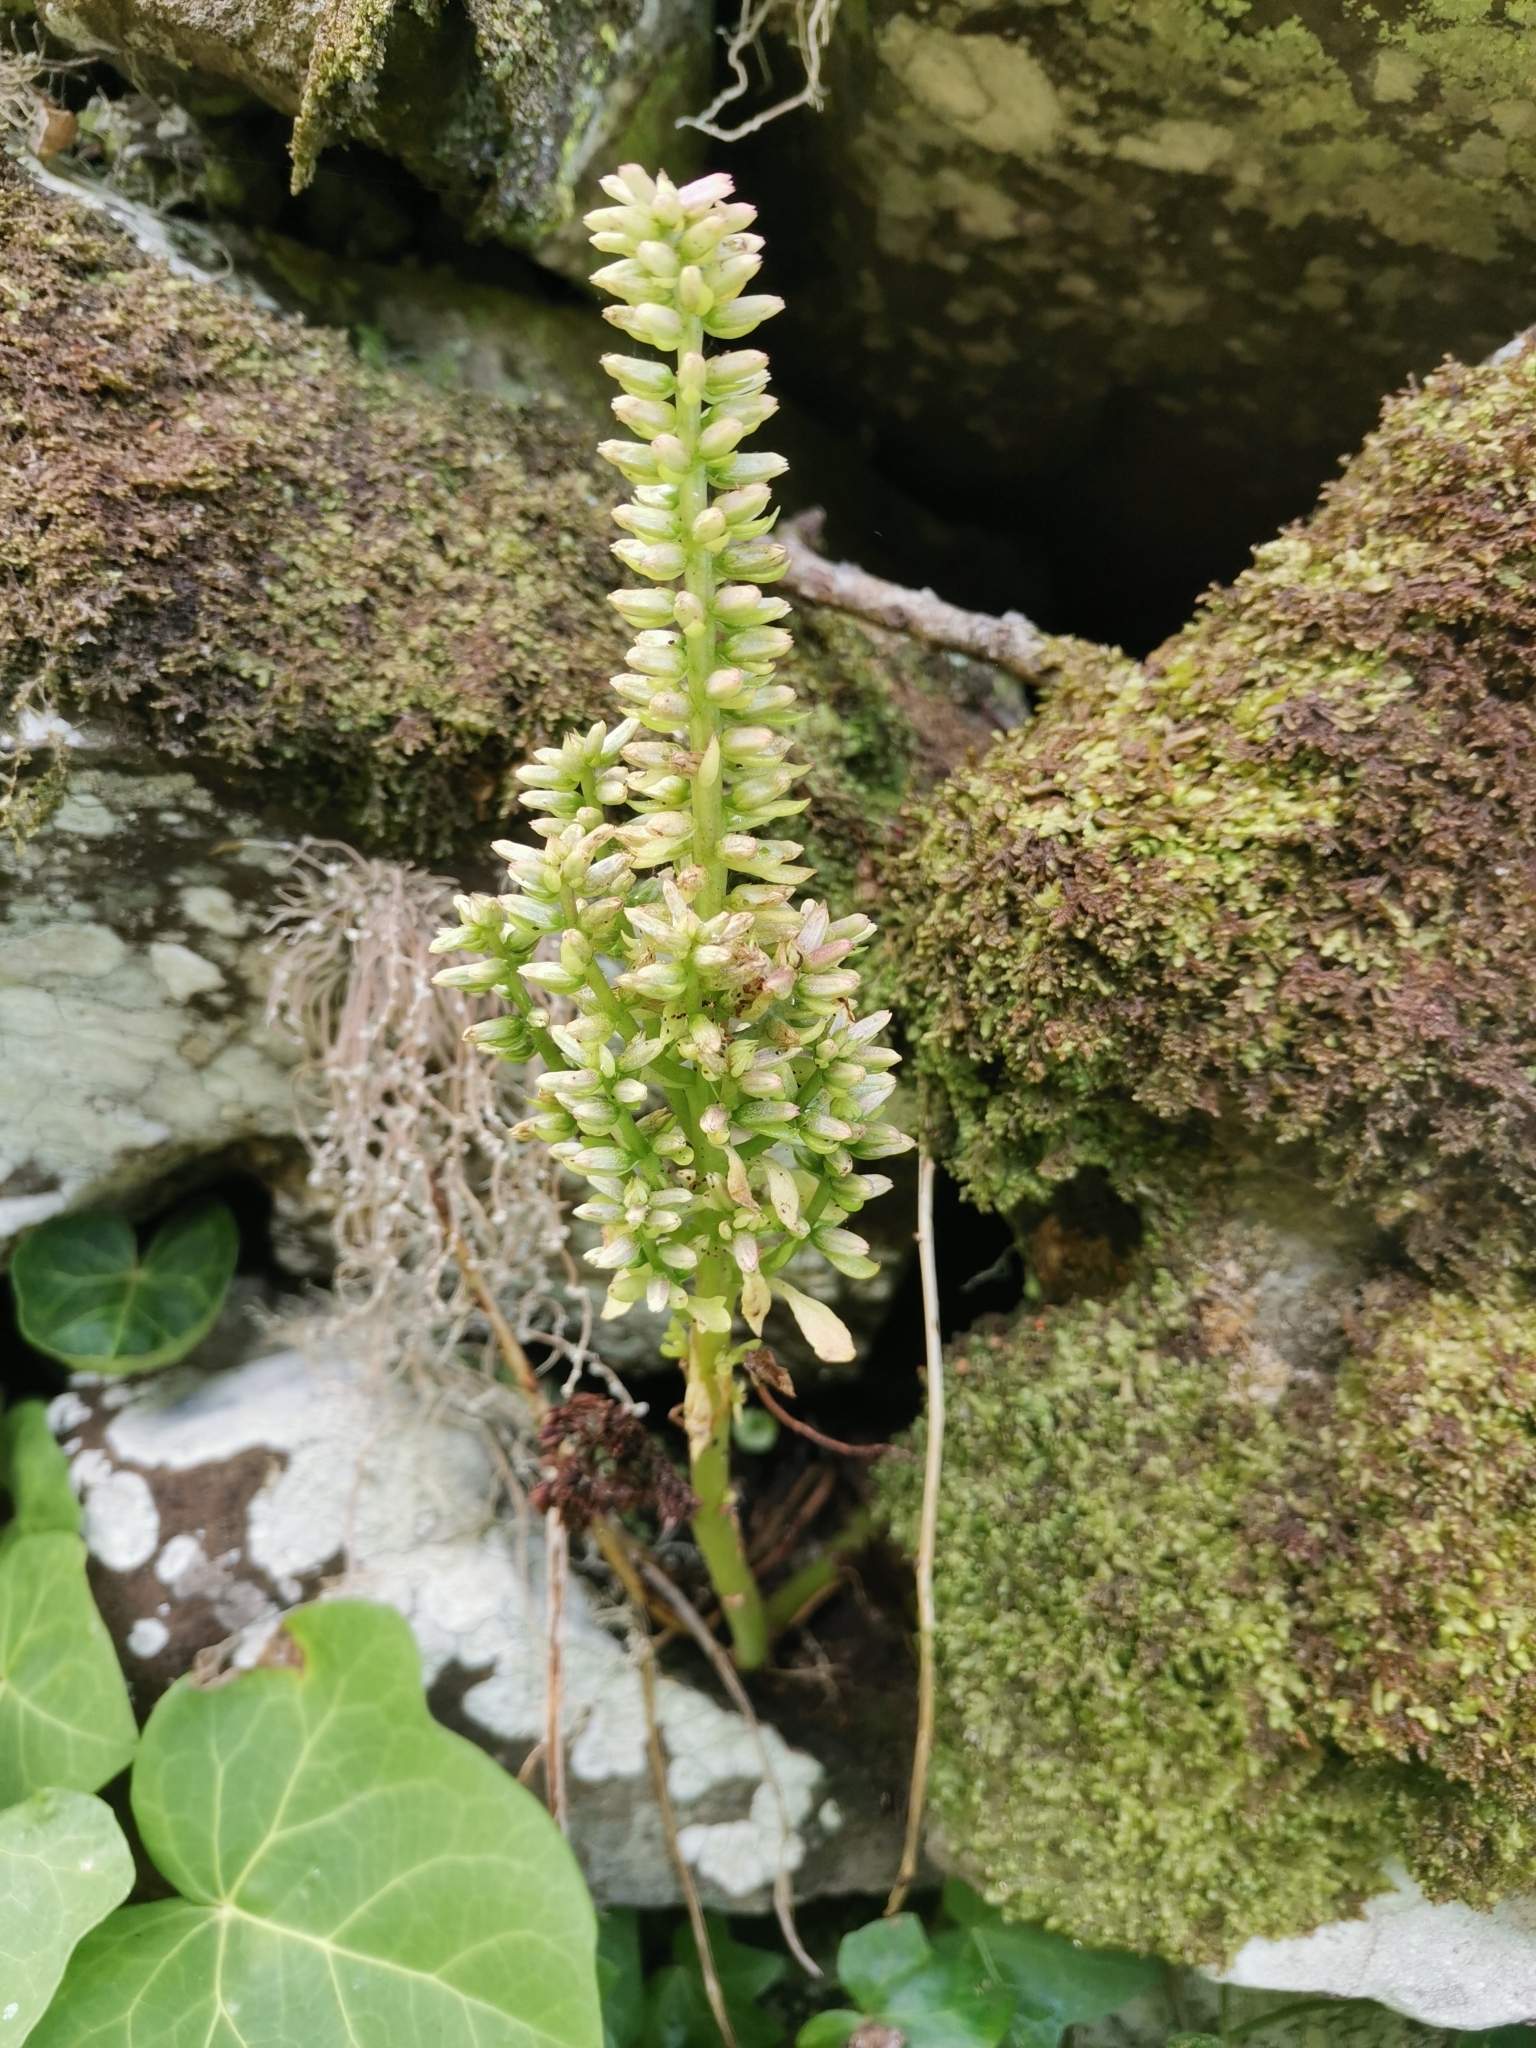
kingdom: Plantae
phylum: Tracheophyta
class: Magnoliopsida
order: Saxifragales
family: Crassulaceae
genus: Umbilicus
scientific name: Umbilicus horizontalis
